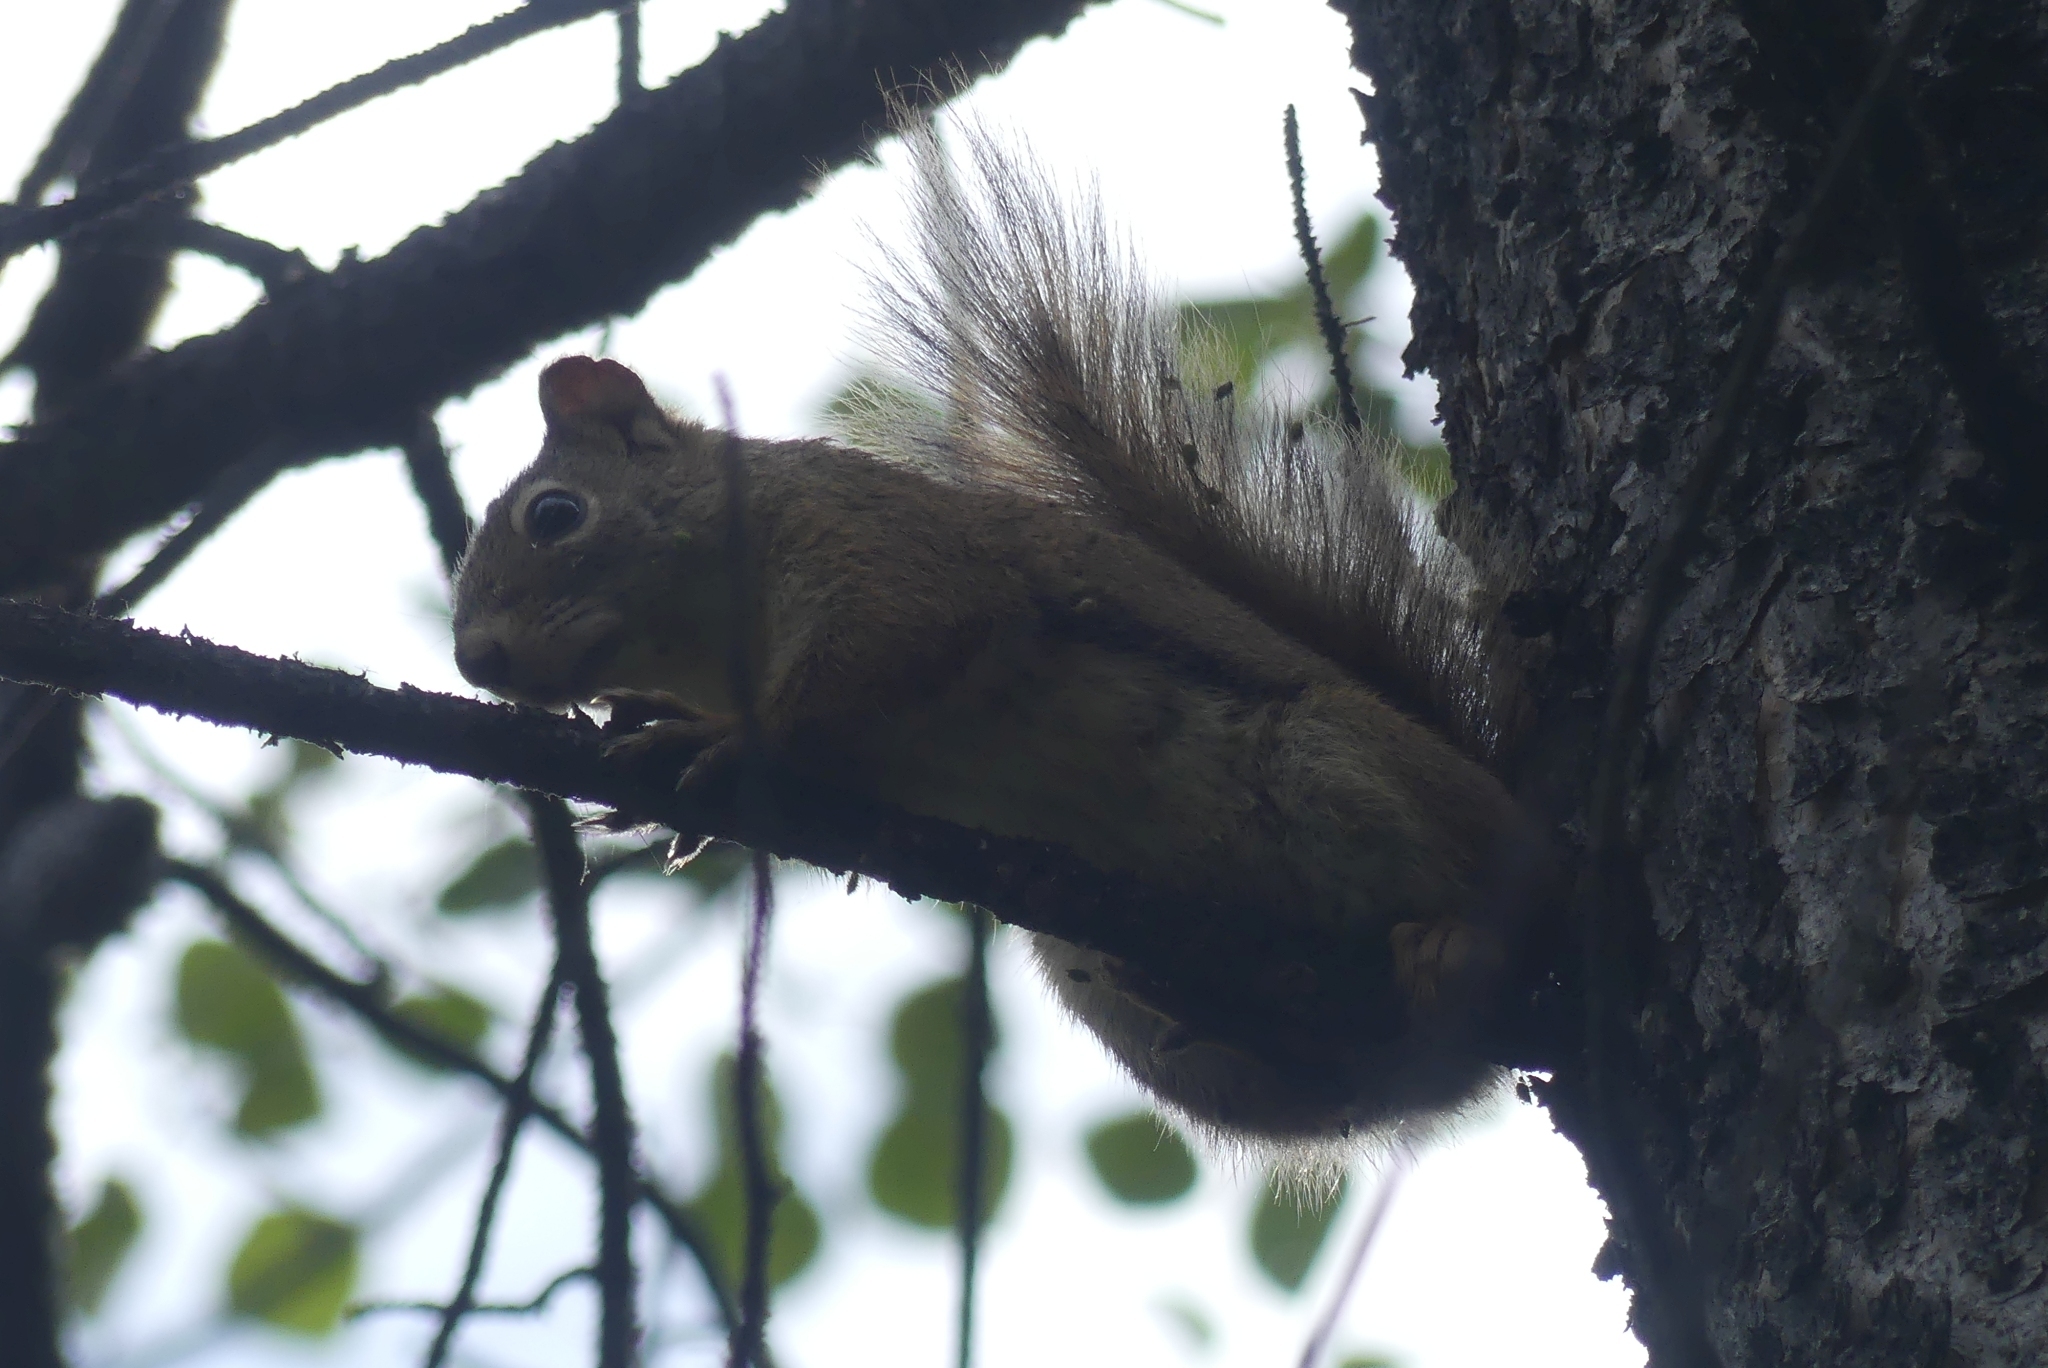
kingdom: Animalia
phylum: Chordata
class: Mammalia
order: Rodentia
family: Sciuridae
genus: Tamiasciurus
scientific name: Tamiasciurus hudsonicus
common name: Red squirrel
